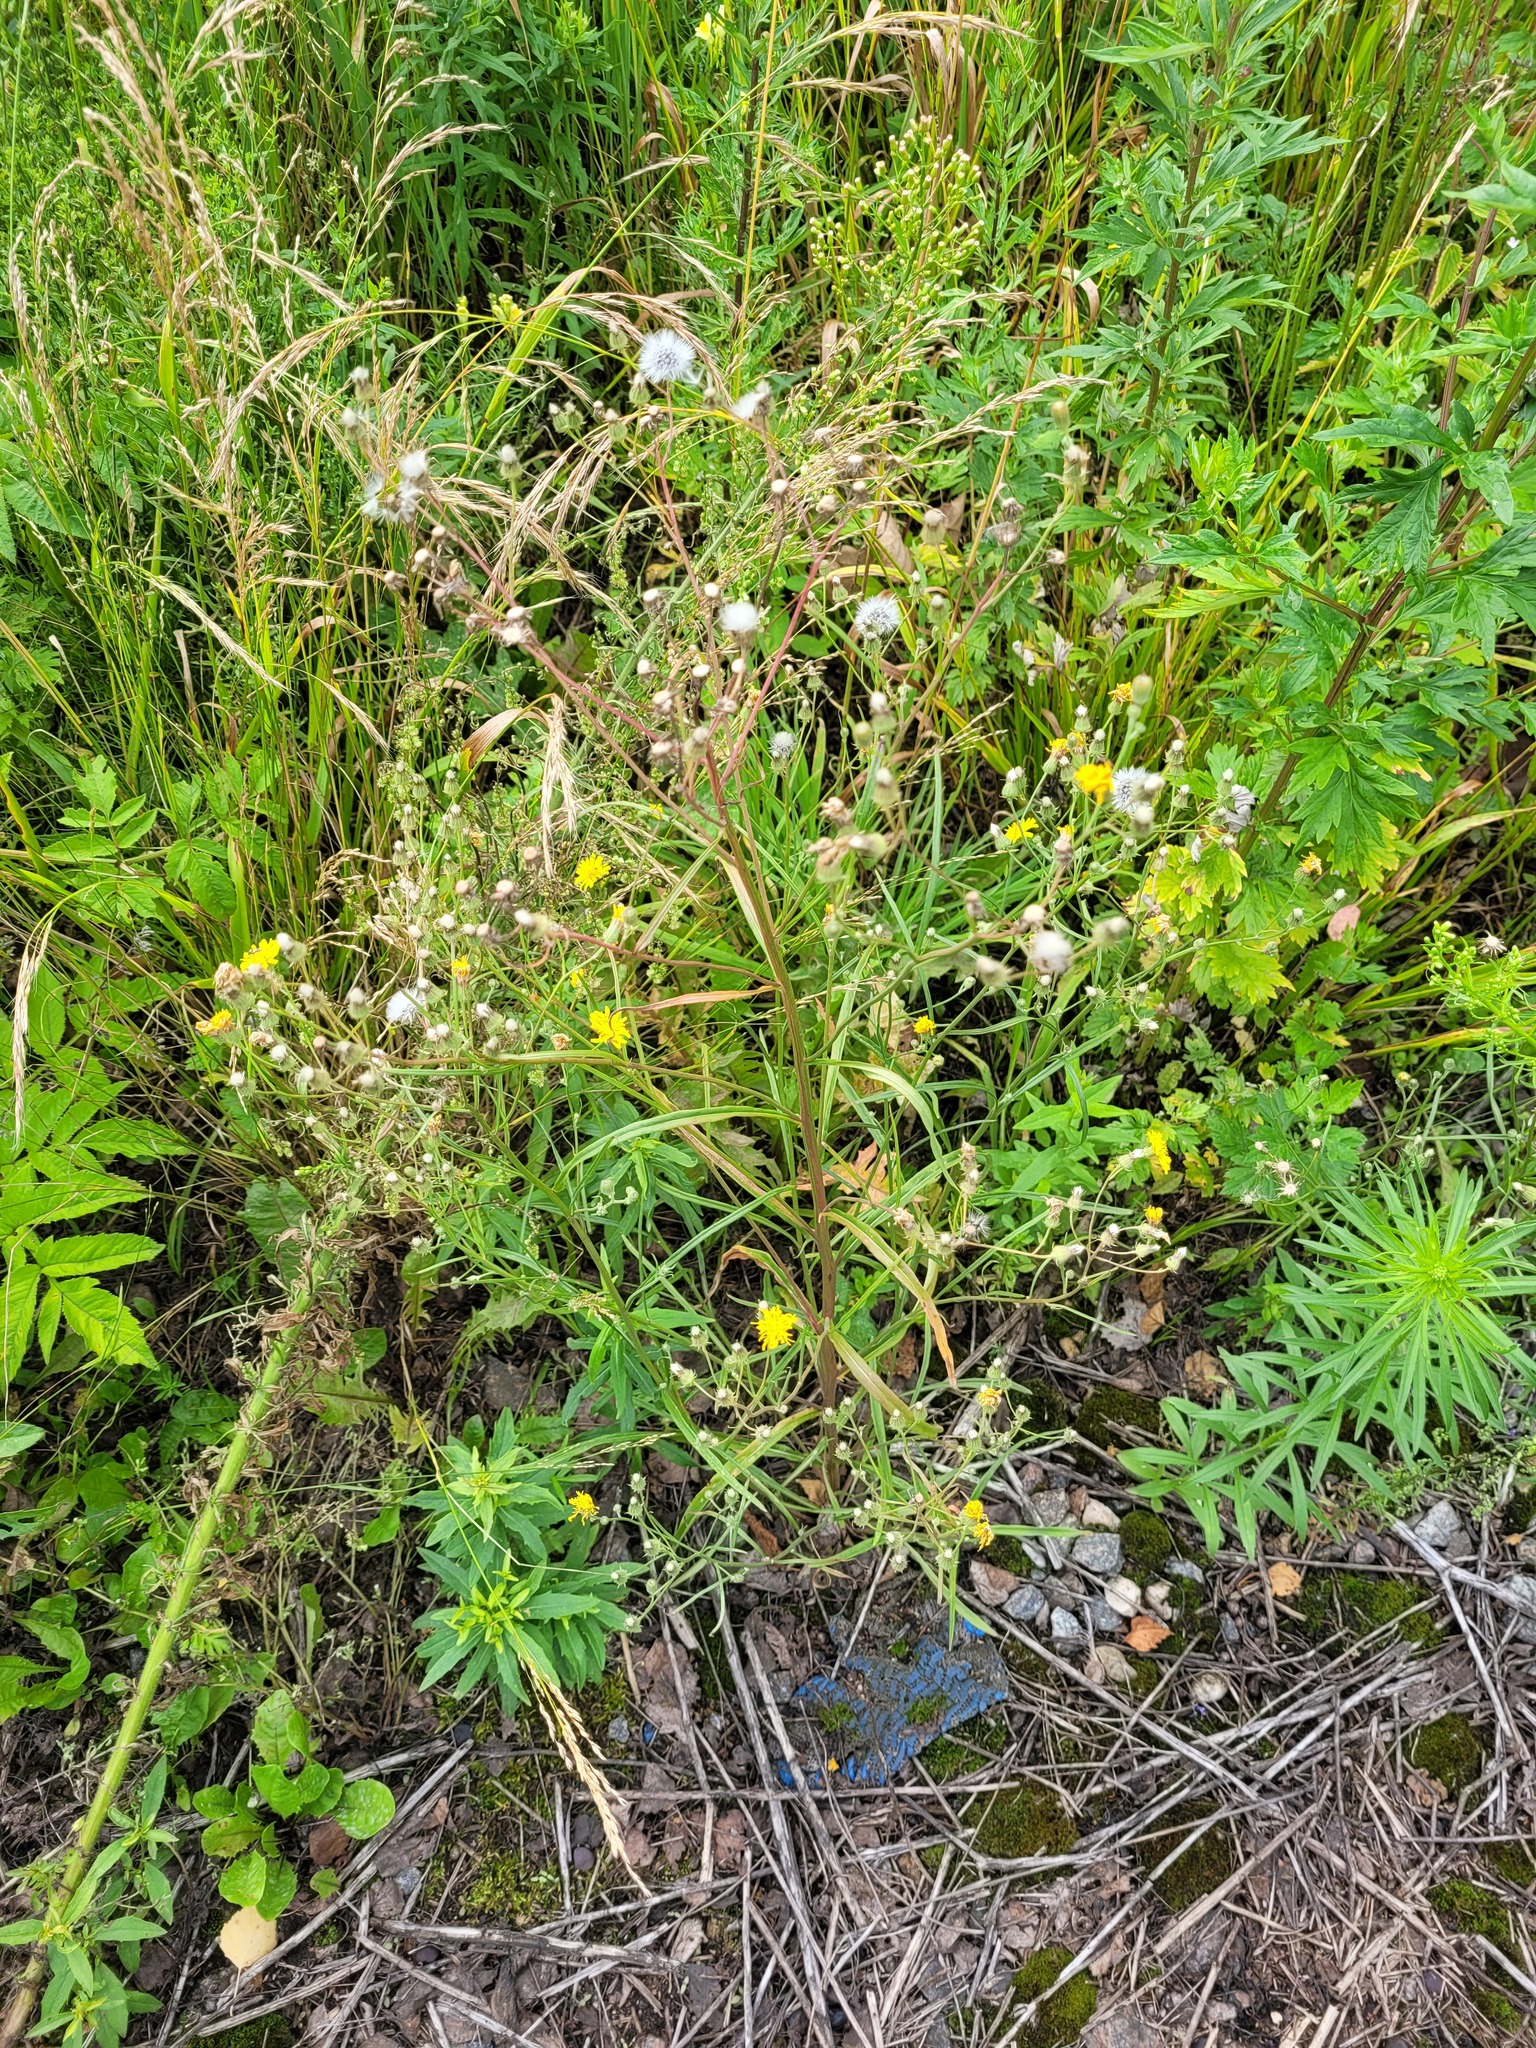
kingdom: Plantae
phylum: Tracheophyta
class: Magnoliopsida
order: Asterales
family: Asteraceae
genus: Crepis
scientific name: Crepis tectorum
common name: Narrow-leaved hawk's-beard
